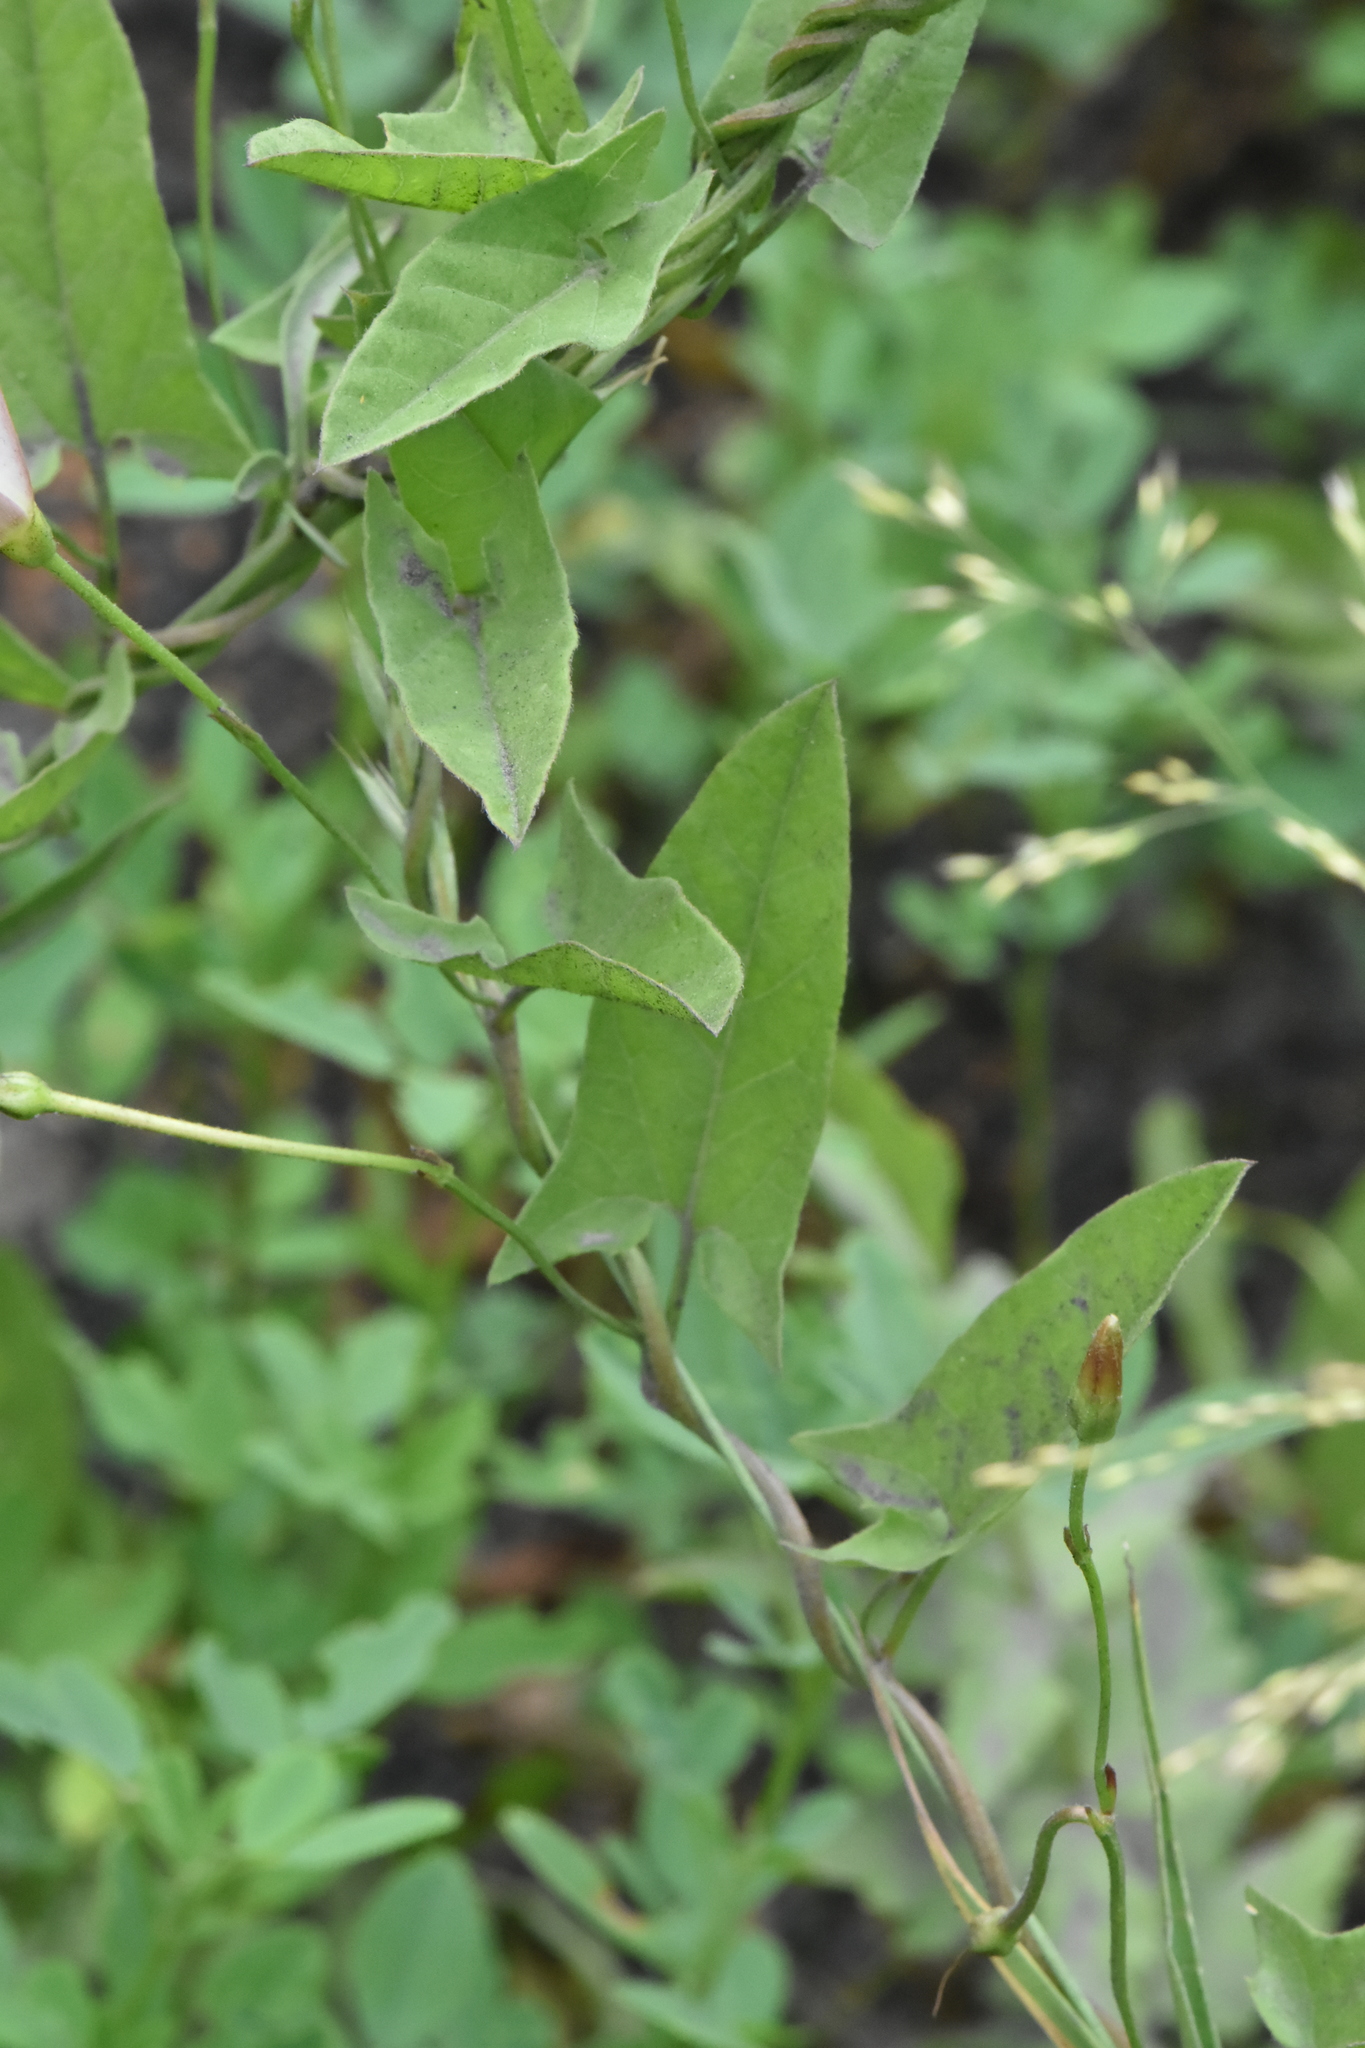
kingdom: Plantae
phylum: Tracheophyta
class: Magnoliopsida
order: Solanales
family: Convolvulaceae
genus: Calystegia
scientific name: Calystegia sepium
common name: Hedge bindweed
